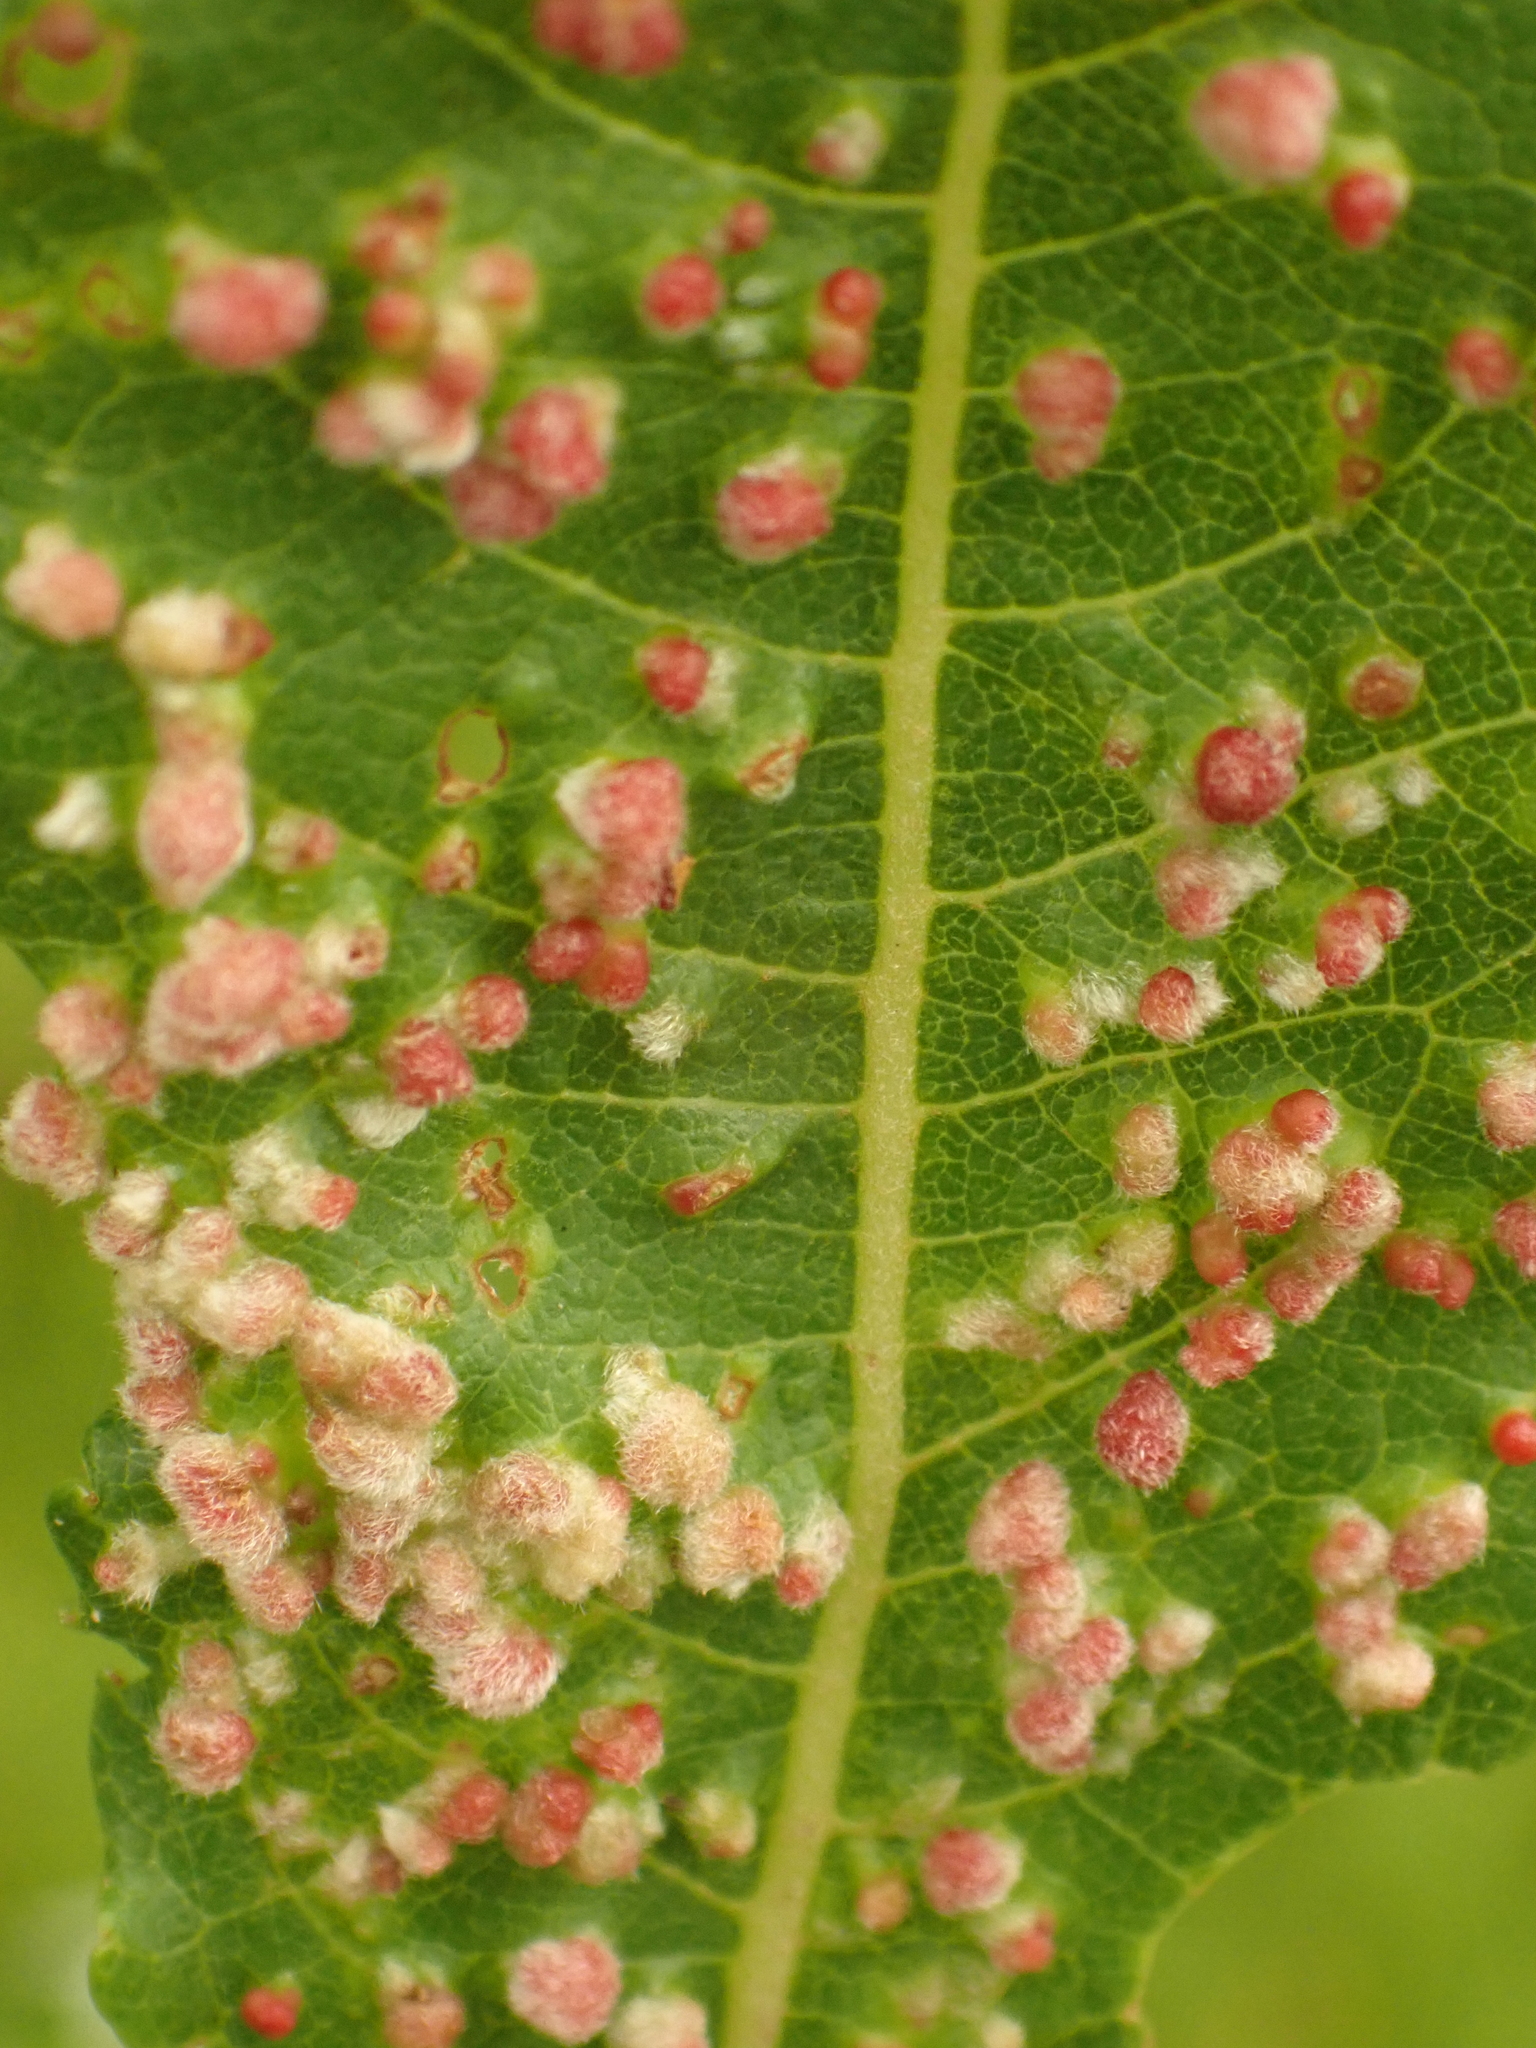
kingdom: Animalia
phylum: Arthropoda
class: Arachnida
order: Trombidiformes
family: Eriophyidae
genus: Aculus
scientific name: Aculus tetanothrix
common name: Willow bead gall mite
